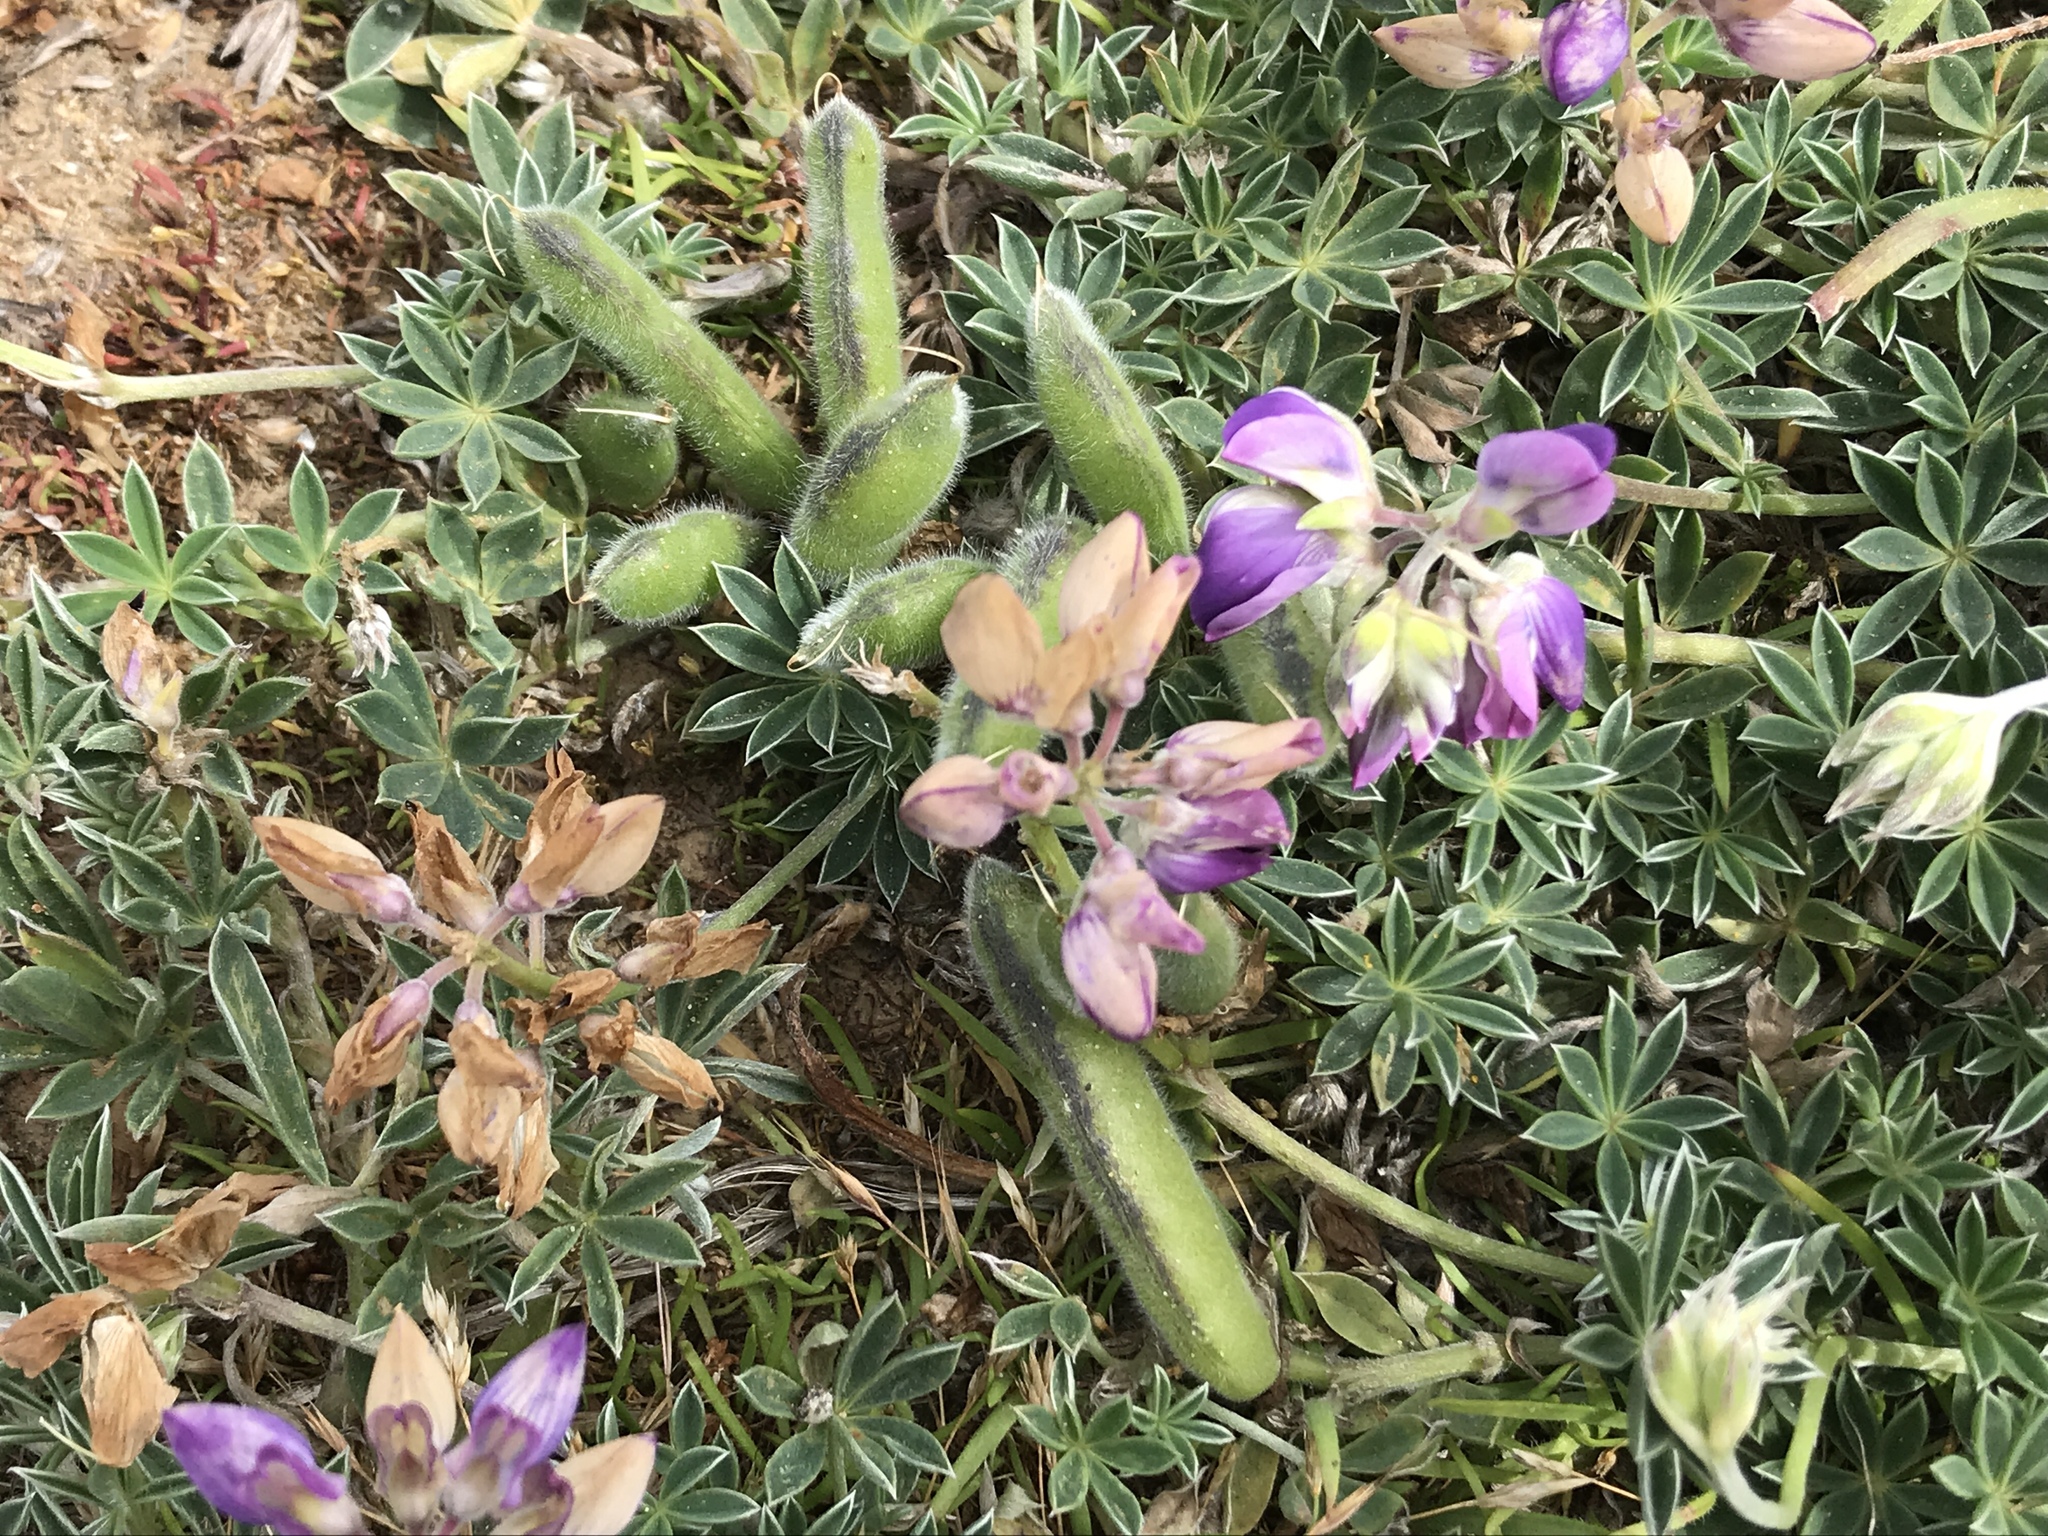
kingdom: Plantae
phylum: Tracheophyta
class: Magnoliopsida
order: Fabales
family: Fabaceae
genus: Lupinus
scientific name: Lupinus littoralis
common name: Seashore lupine
